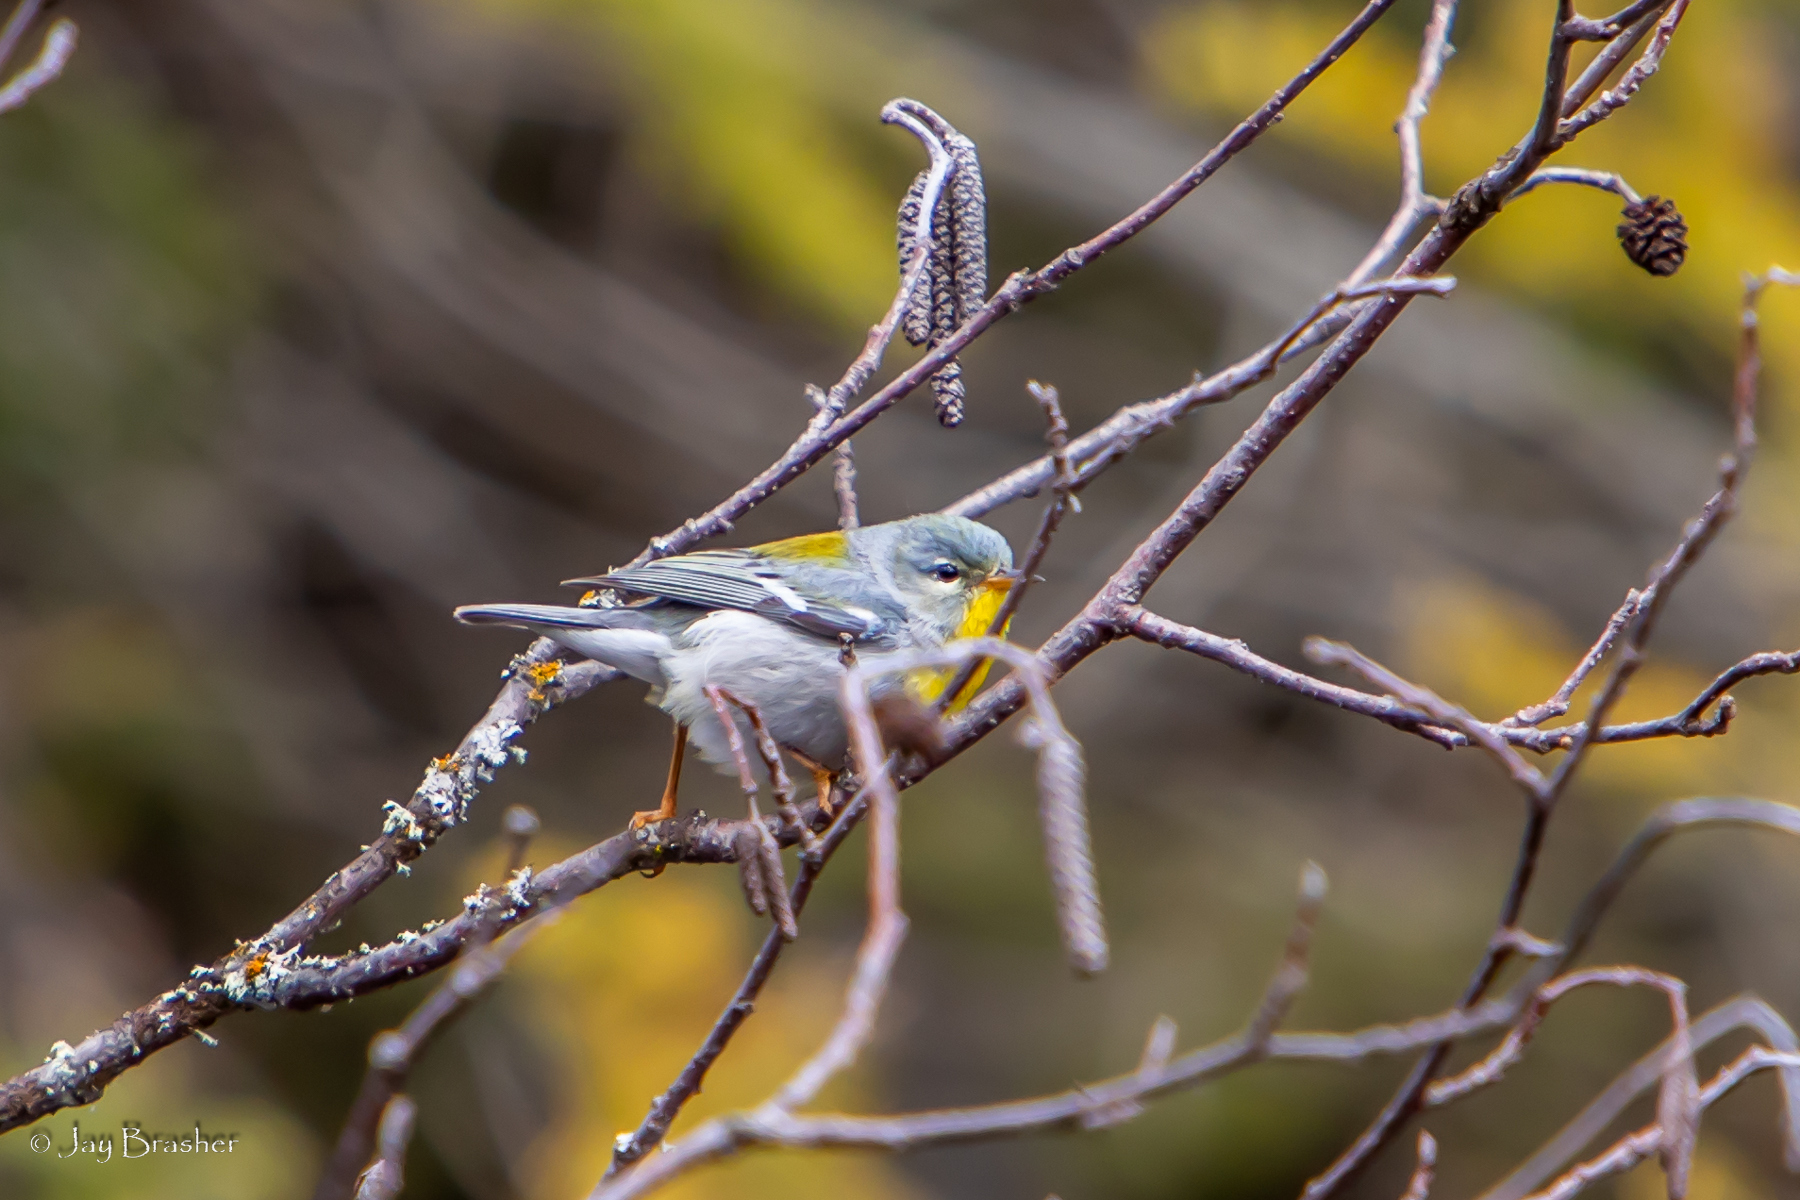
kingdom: Animalia
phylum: Chordata
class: Aves
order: Passeriformes
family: Parulidae
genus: Setophaga
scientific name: Setophaga americana
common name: Northern parula
